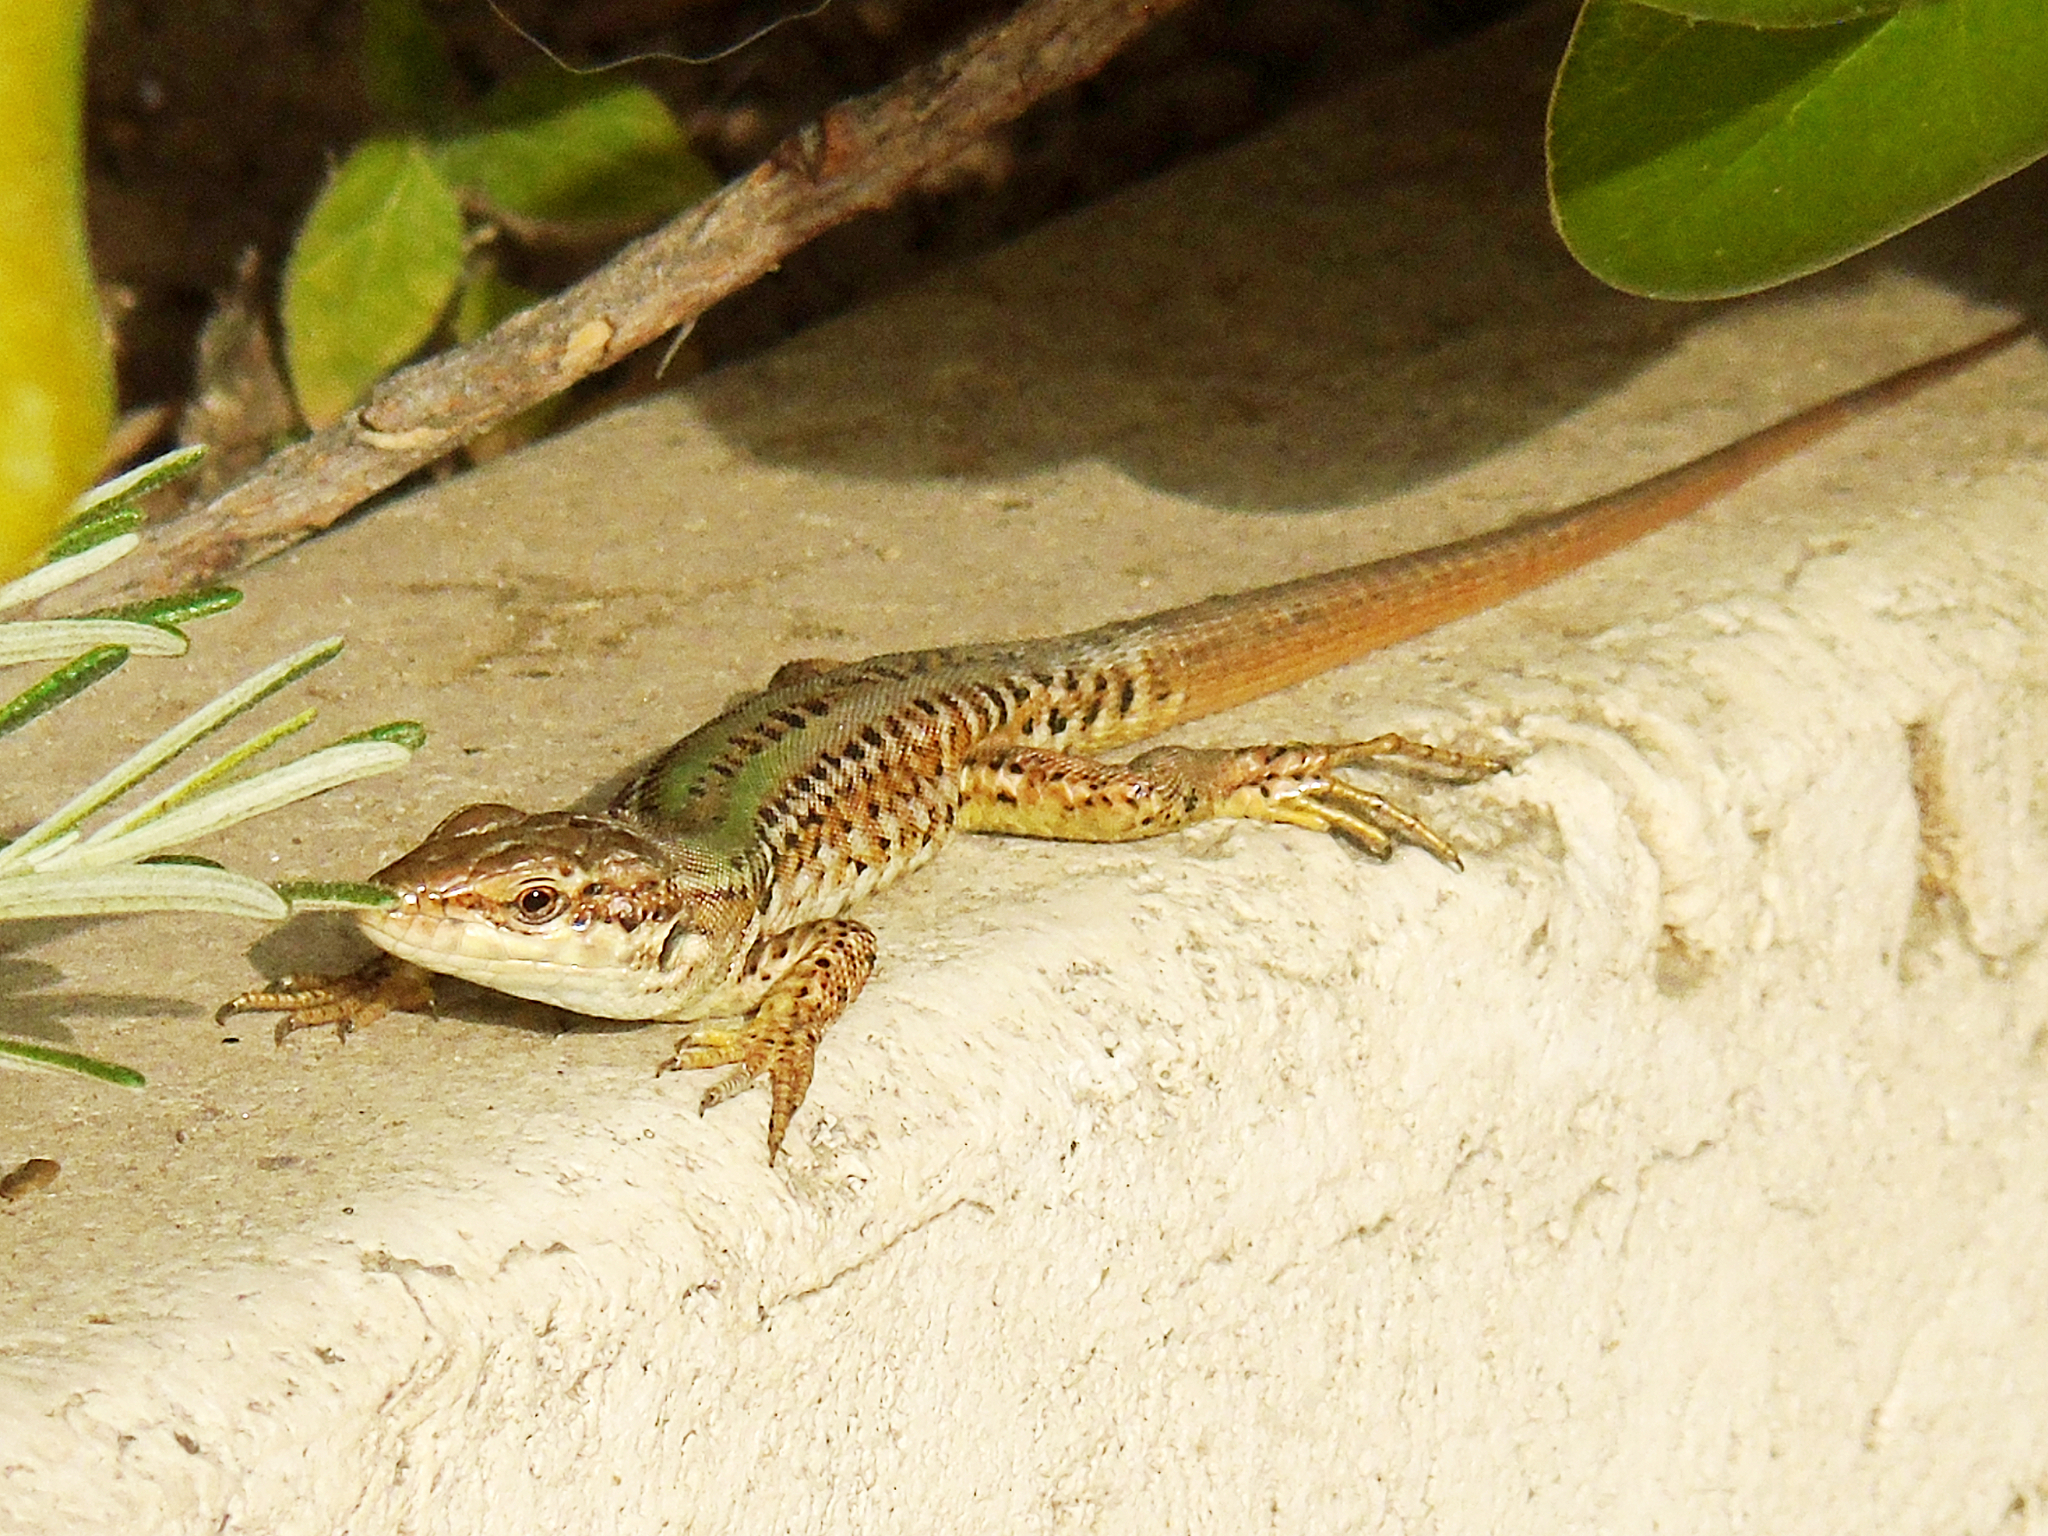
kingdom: Animalia
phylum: Chordata
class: Squamata
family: Lacertidae
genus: Podarcis
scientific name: Podarcis siculus
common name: Italian wall lizard
